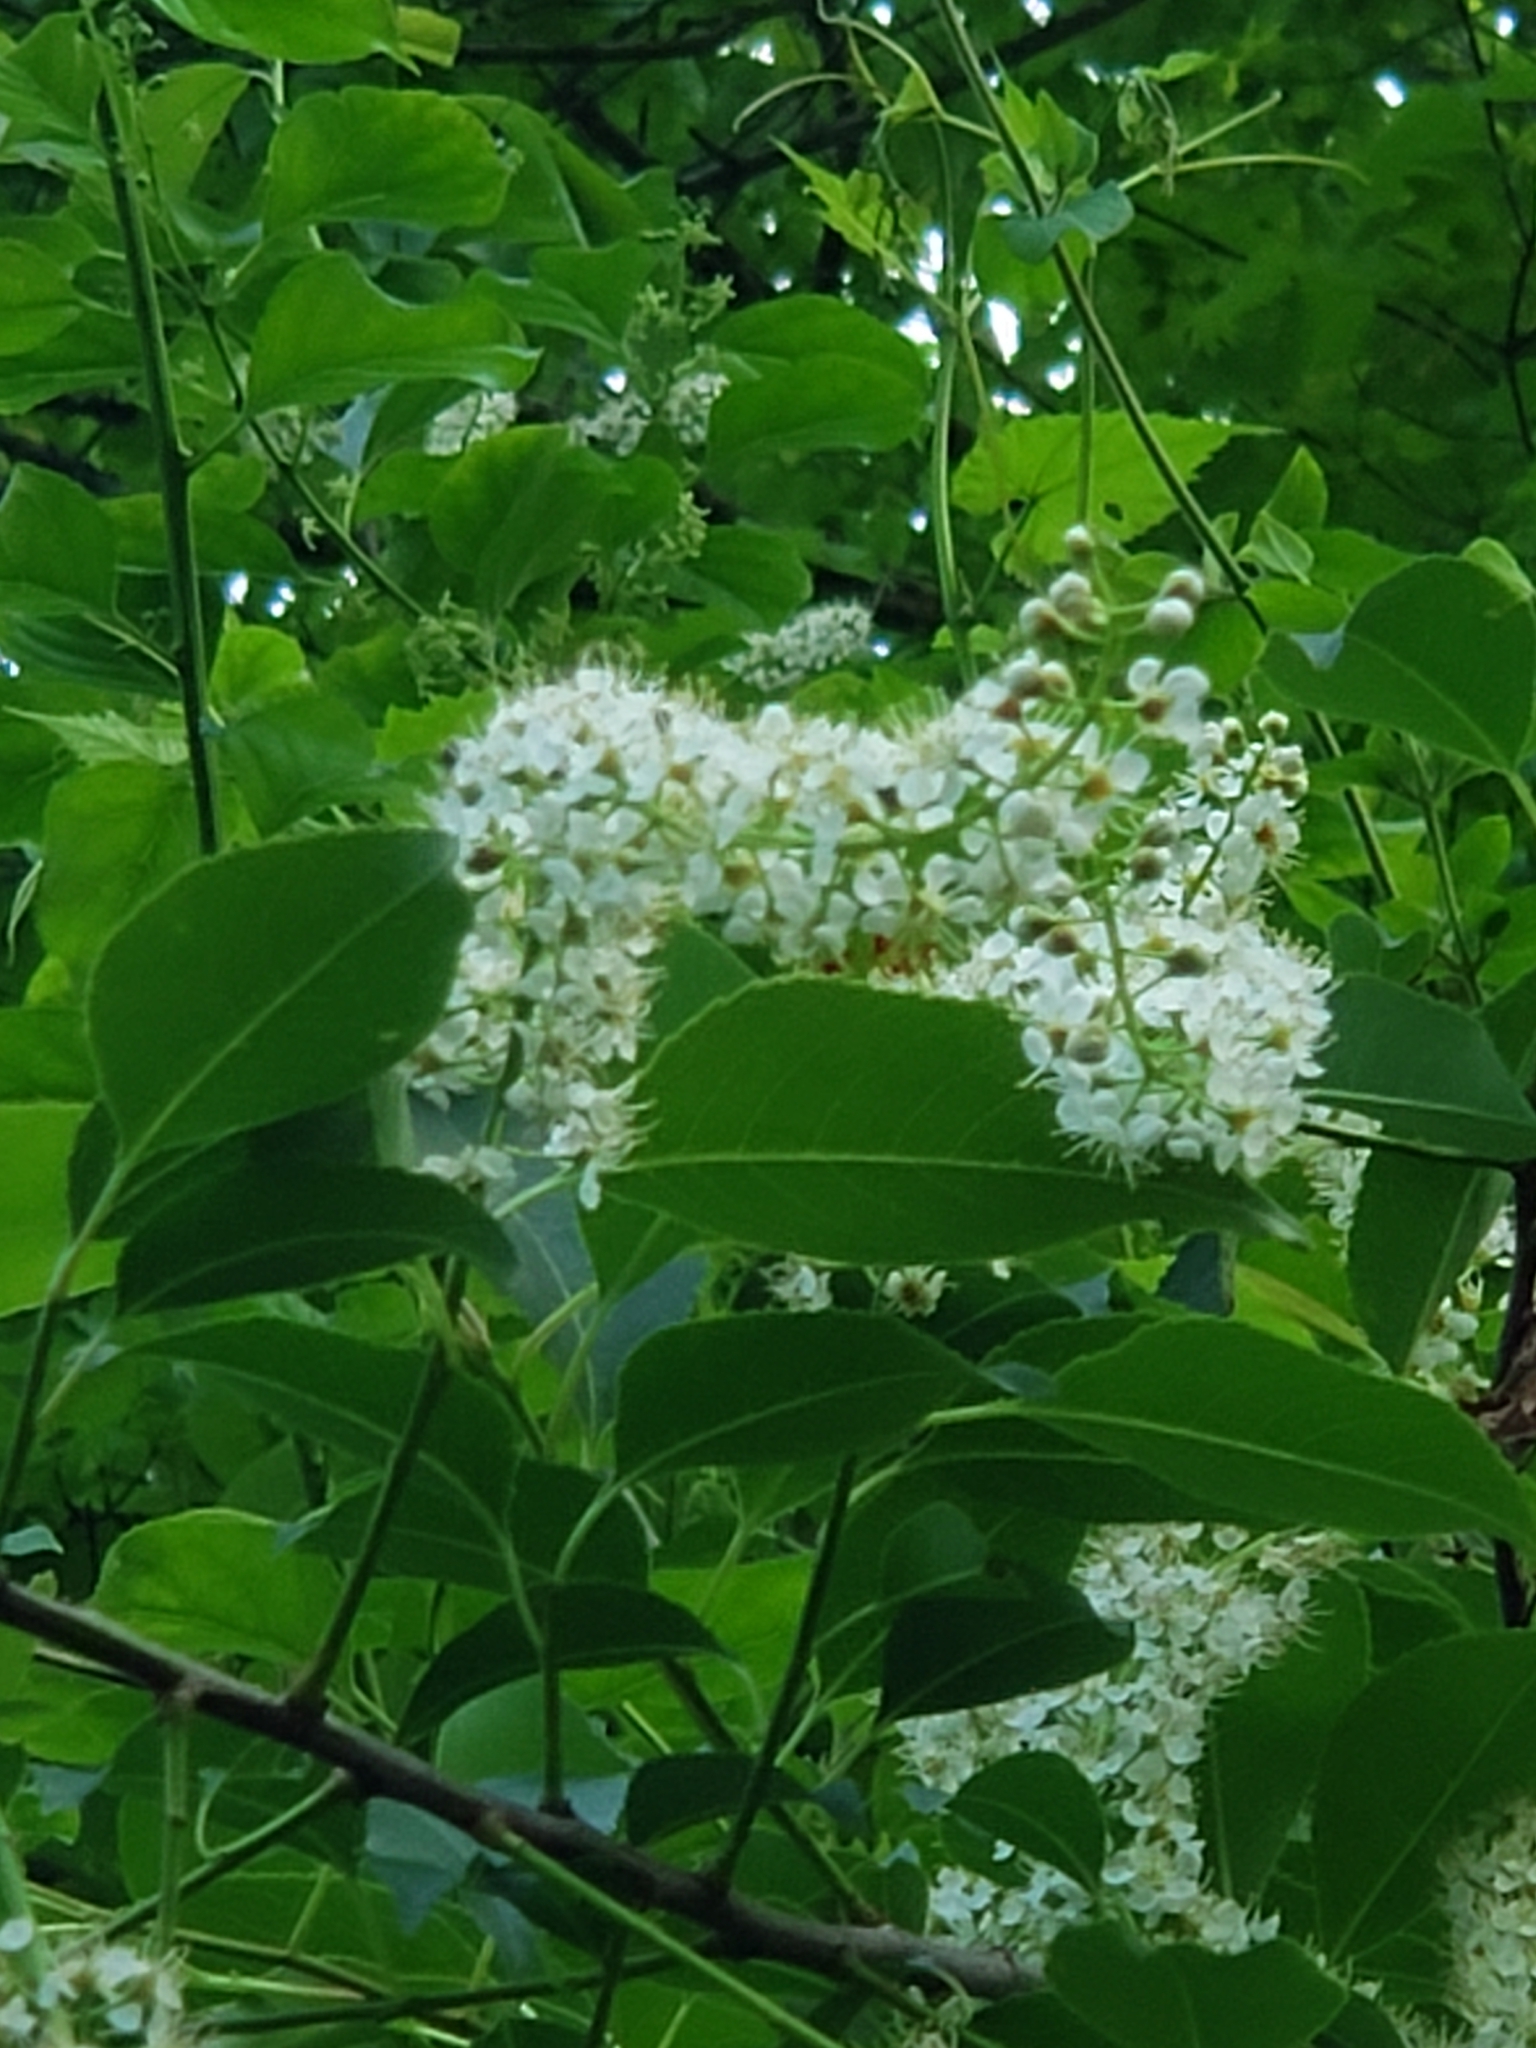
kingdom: Plantae
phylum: Tracheophyta
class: Magnoliopsida
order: Rosales
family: Rosaceae
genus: Prunus
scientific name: Prunus serotina
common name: Black cherry
